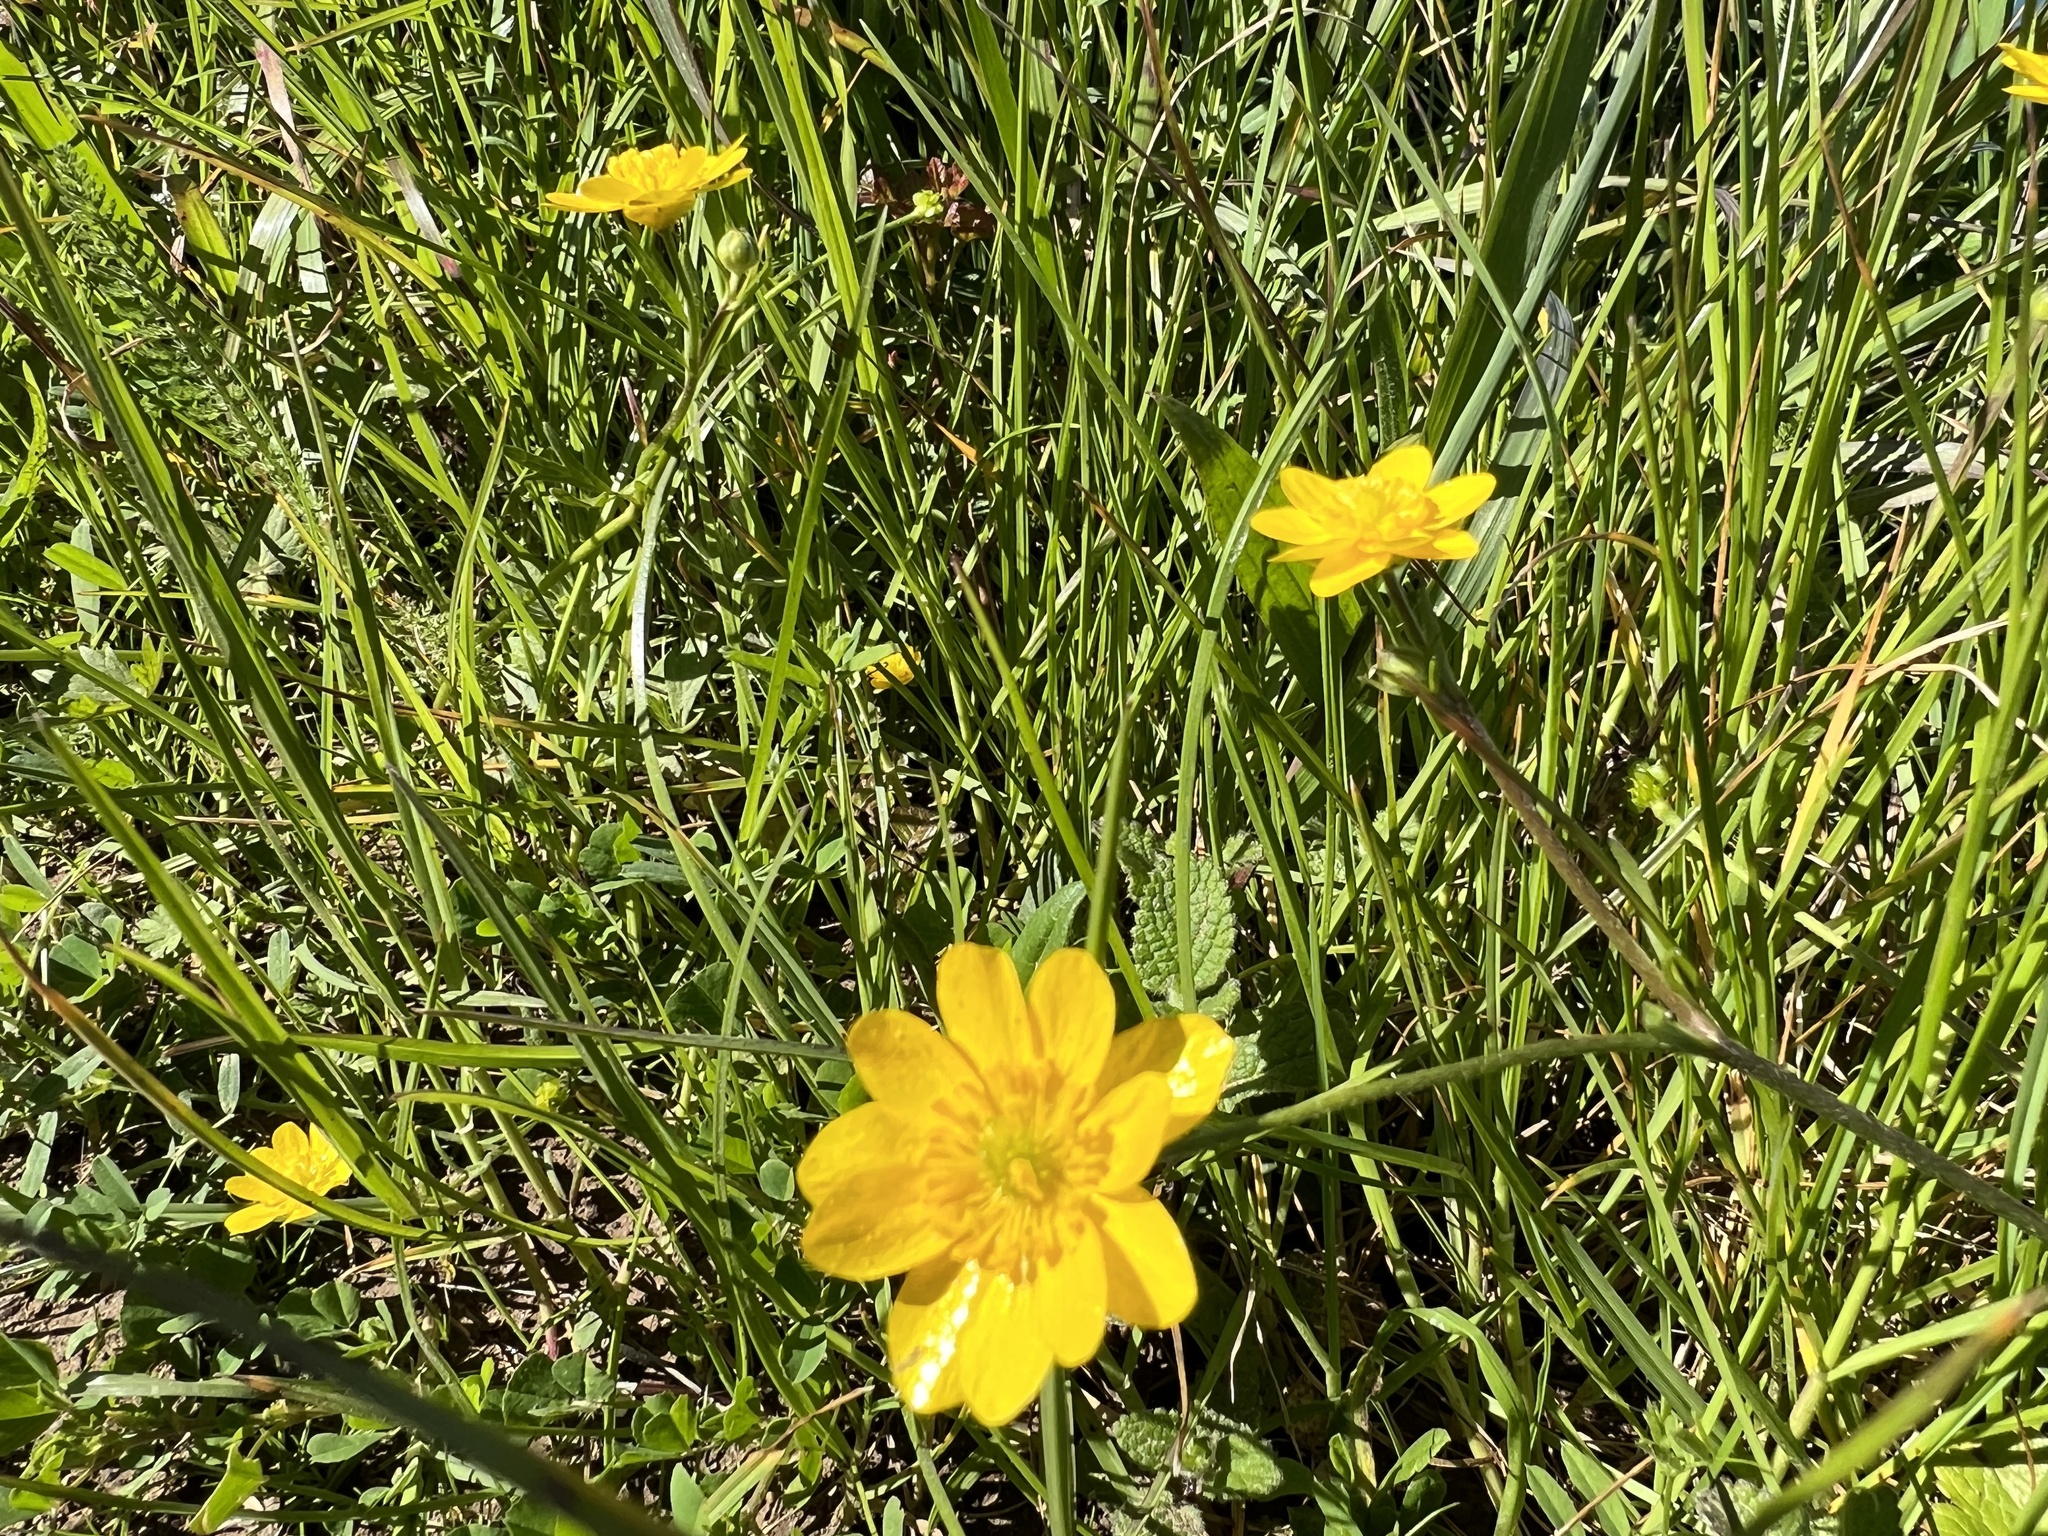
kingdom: Plantae
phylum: Tracheophyta
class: Magnoliopsida
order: Ranunculales
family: Ranunculaceae
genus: Ranunculus
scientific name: Ranunculus californicus
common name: California buttercup
